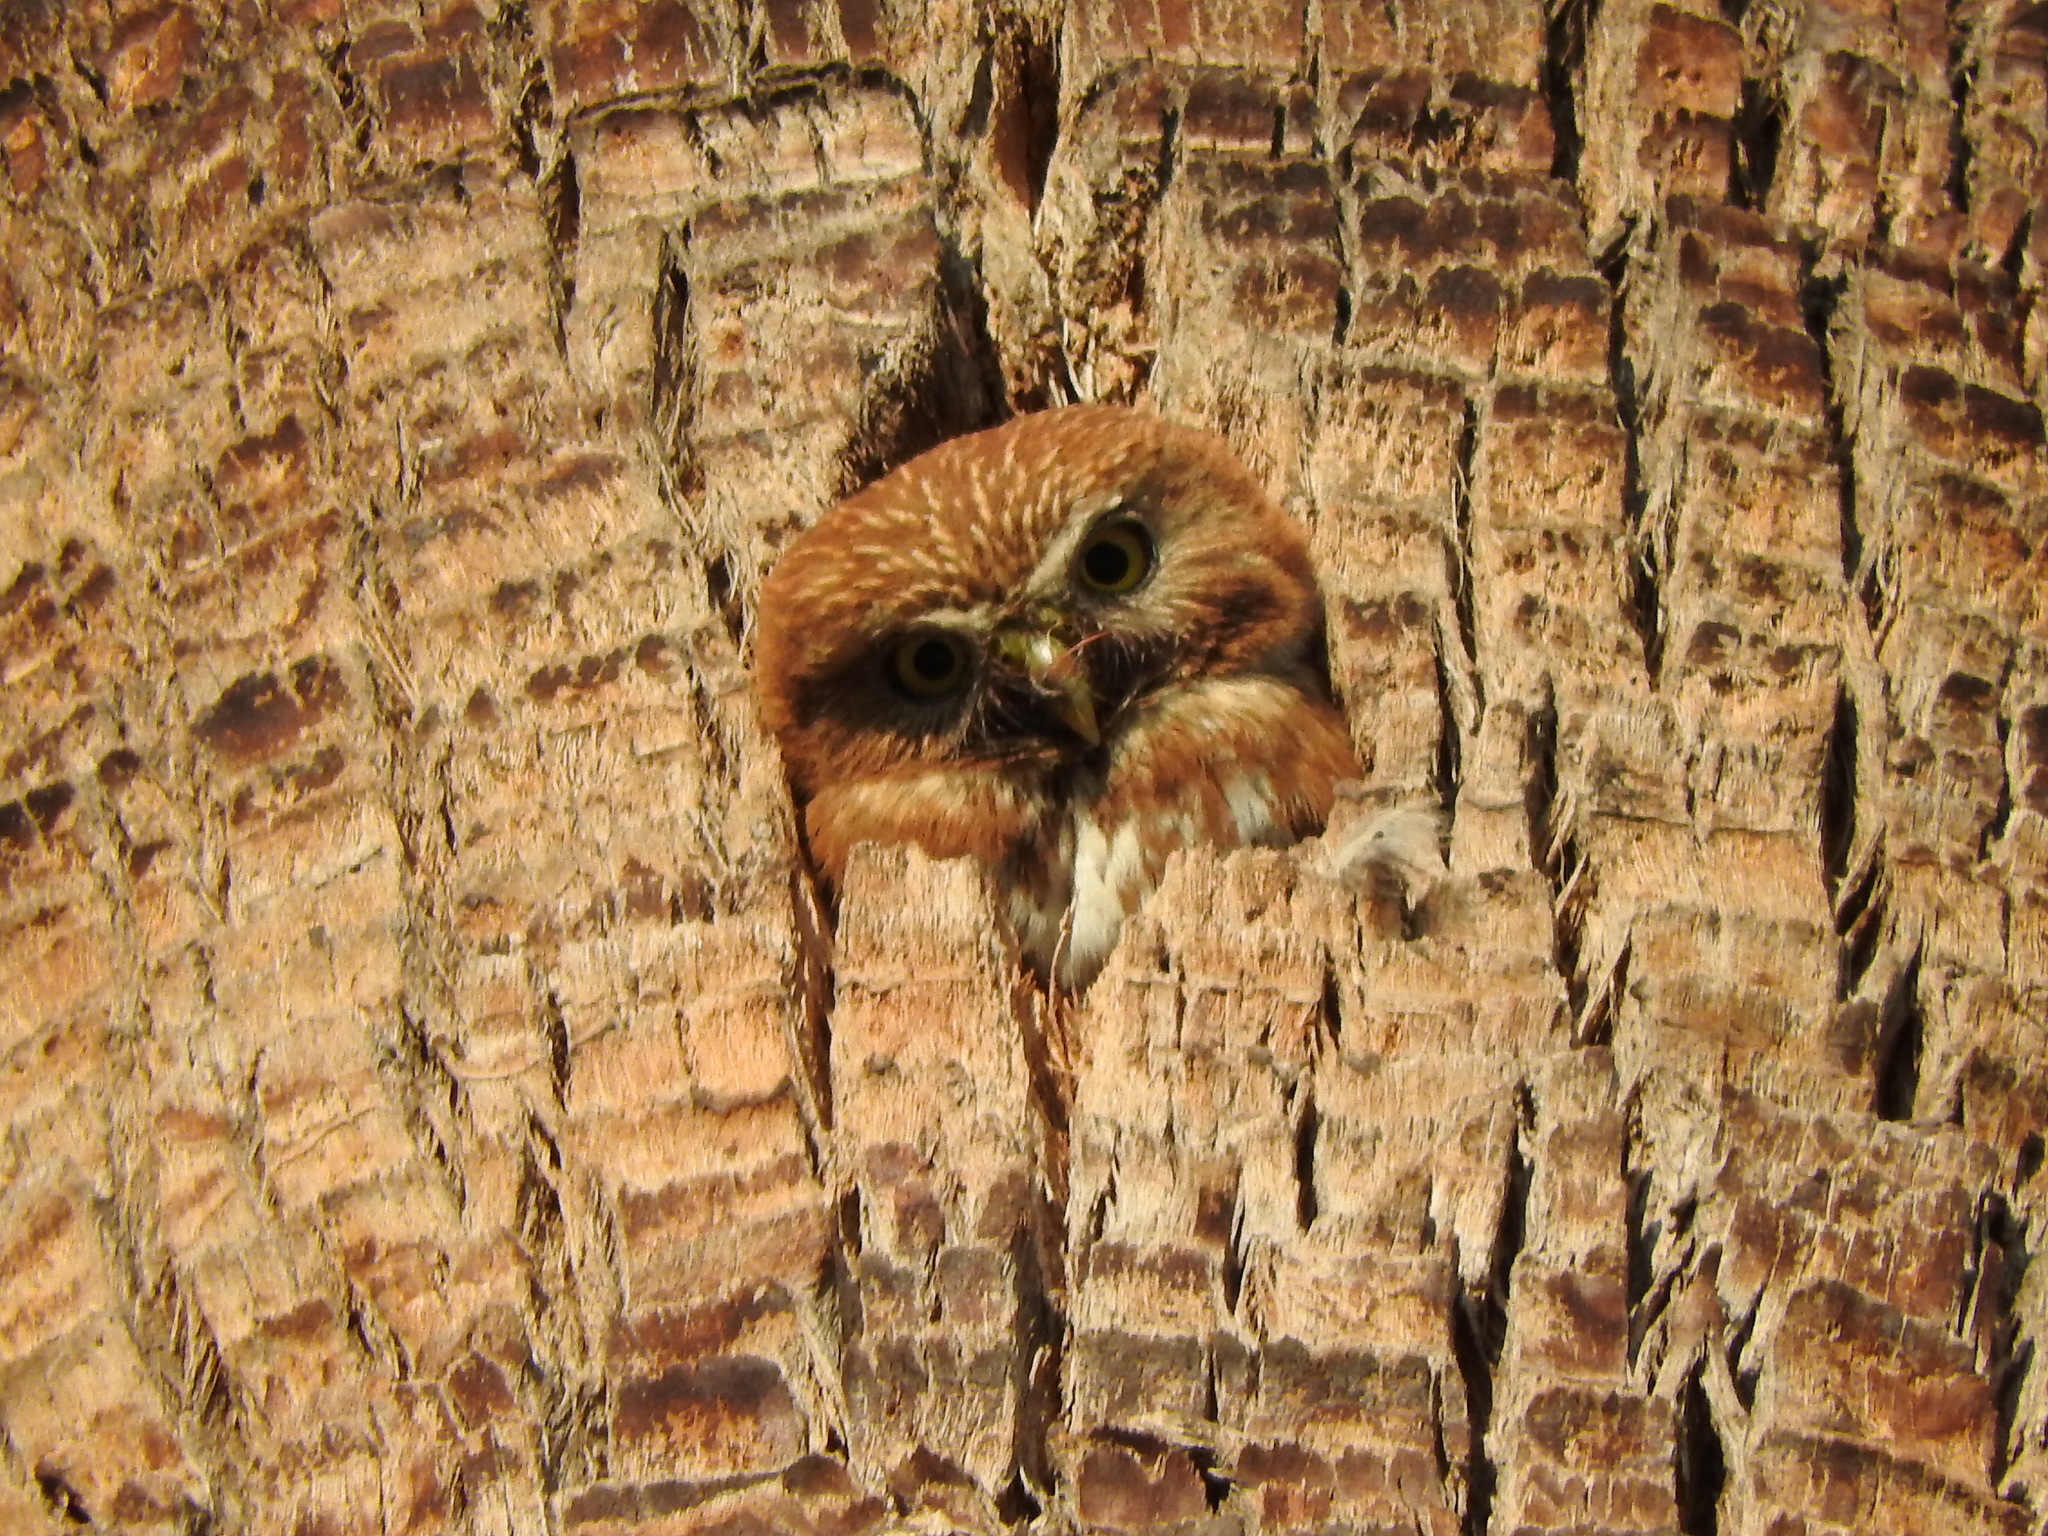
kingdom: Animalia
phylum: Chordata
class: Aves
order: Strigiformes
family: Strigidae
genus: Glaucidium
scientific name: Glaucidium brasilianum
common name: Ferruginous pygmy-owl
